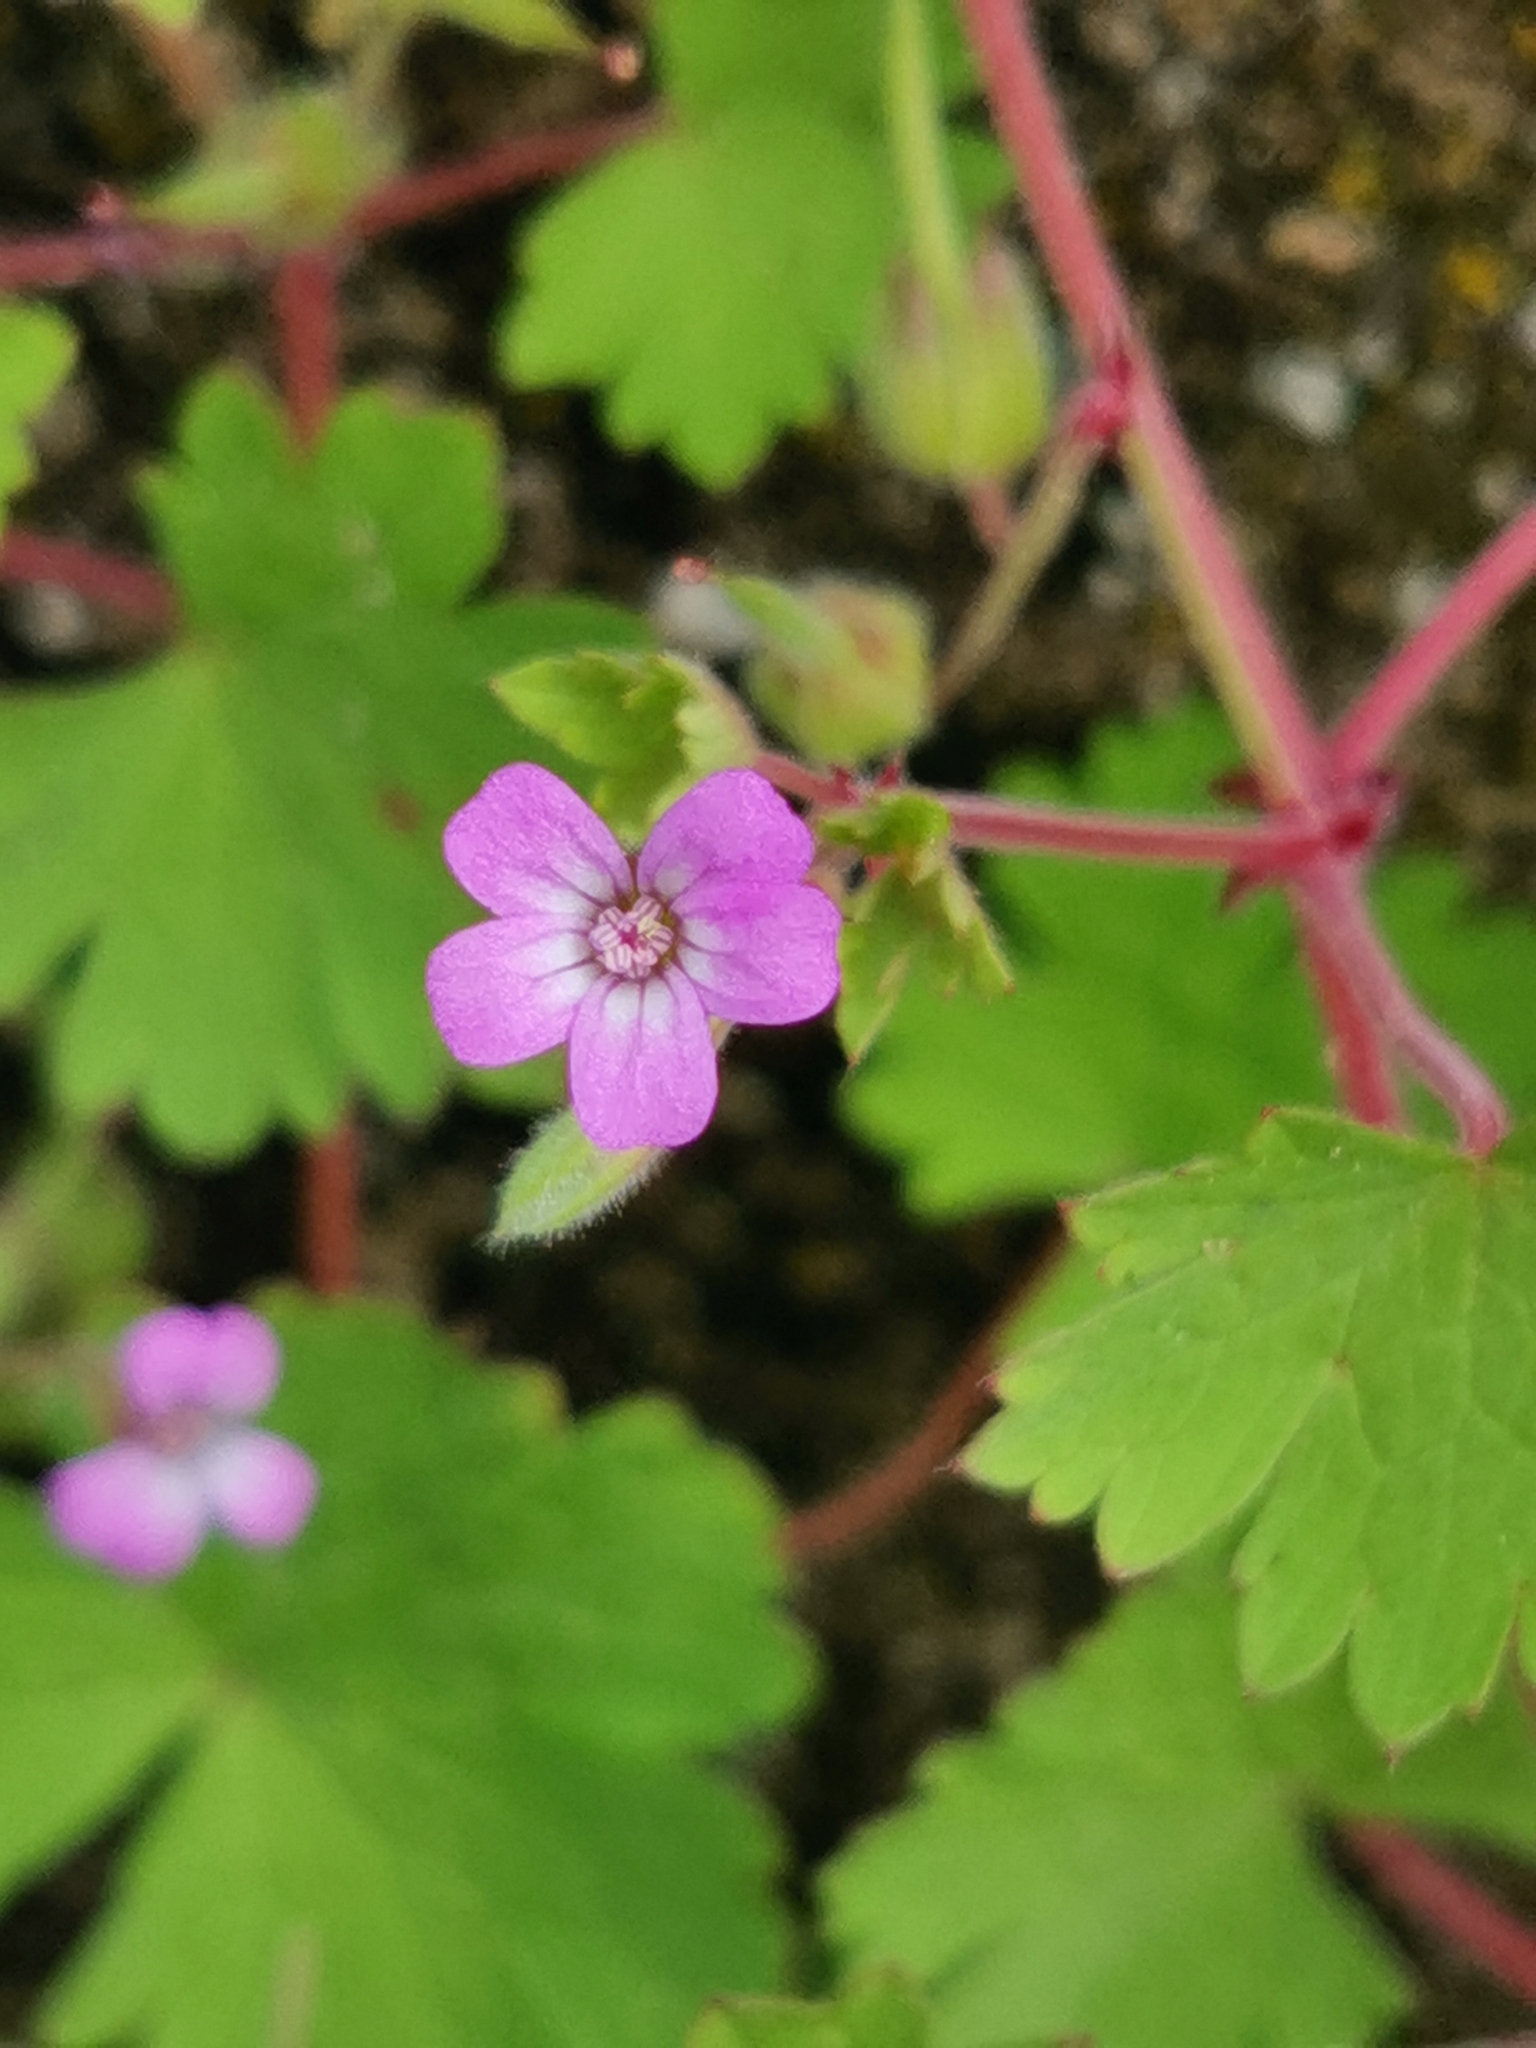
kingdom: Plantae
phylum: Tracheophyta
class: Magnoliopsida
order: Geraniales
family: Geraniaceae
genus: Geranium
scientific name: Geranium rotundifolium
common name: Round-leaved crane's-bill
